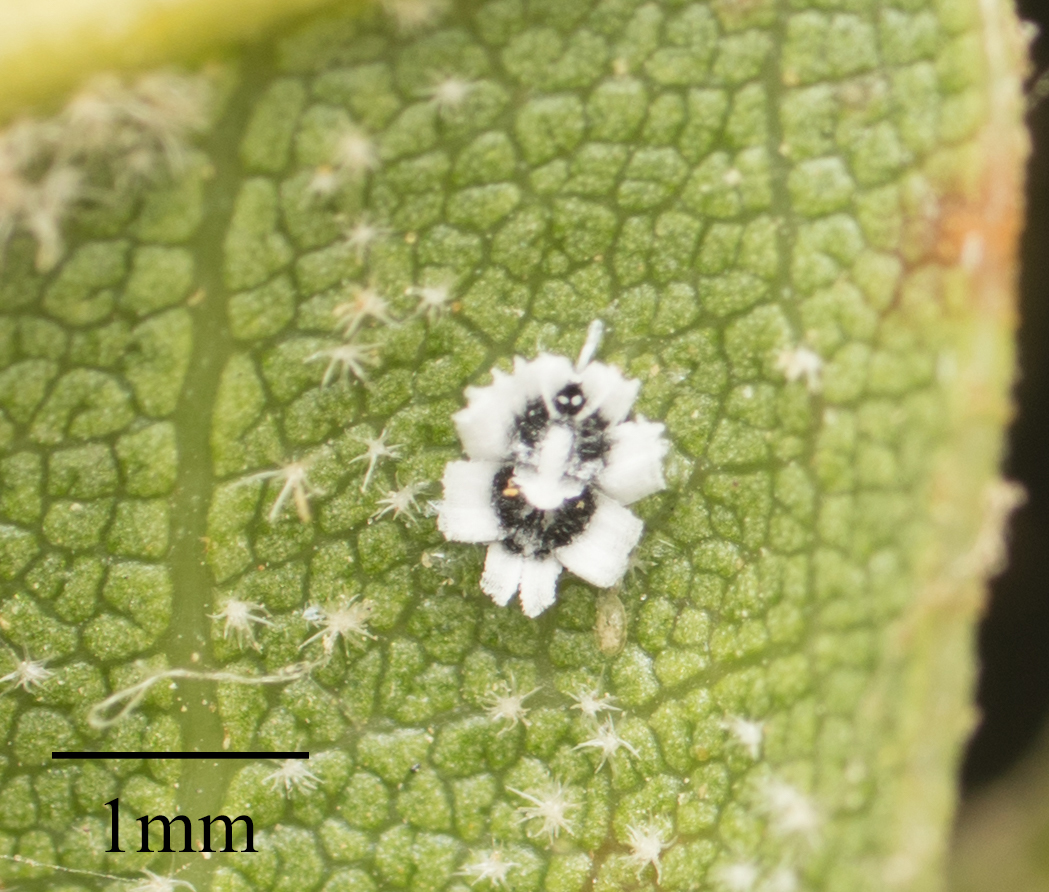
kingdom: Animalia
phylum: Arthropoda
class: Insecta
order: Hemiptera
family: Aleyrodidae
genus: Aleuroplatus
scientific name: Aleuroplatus coronata
